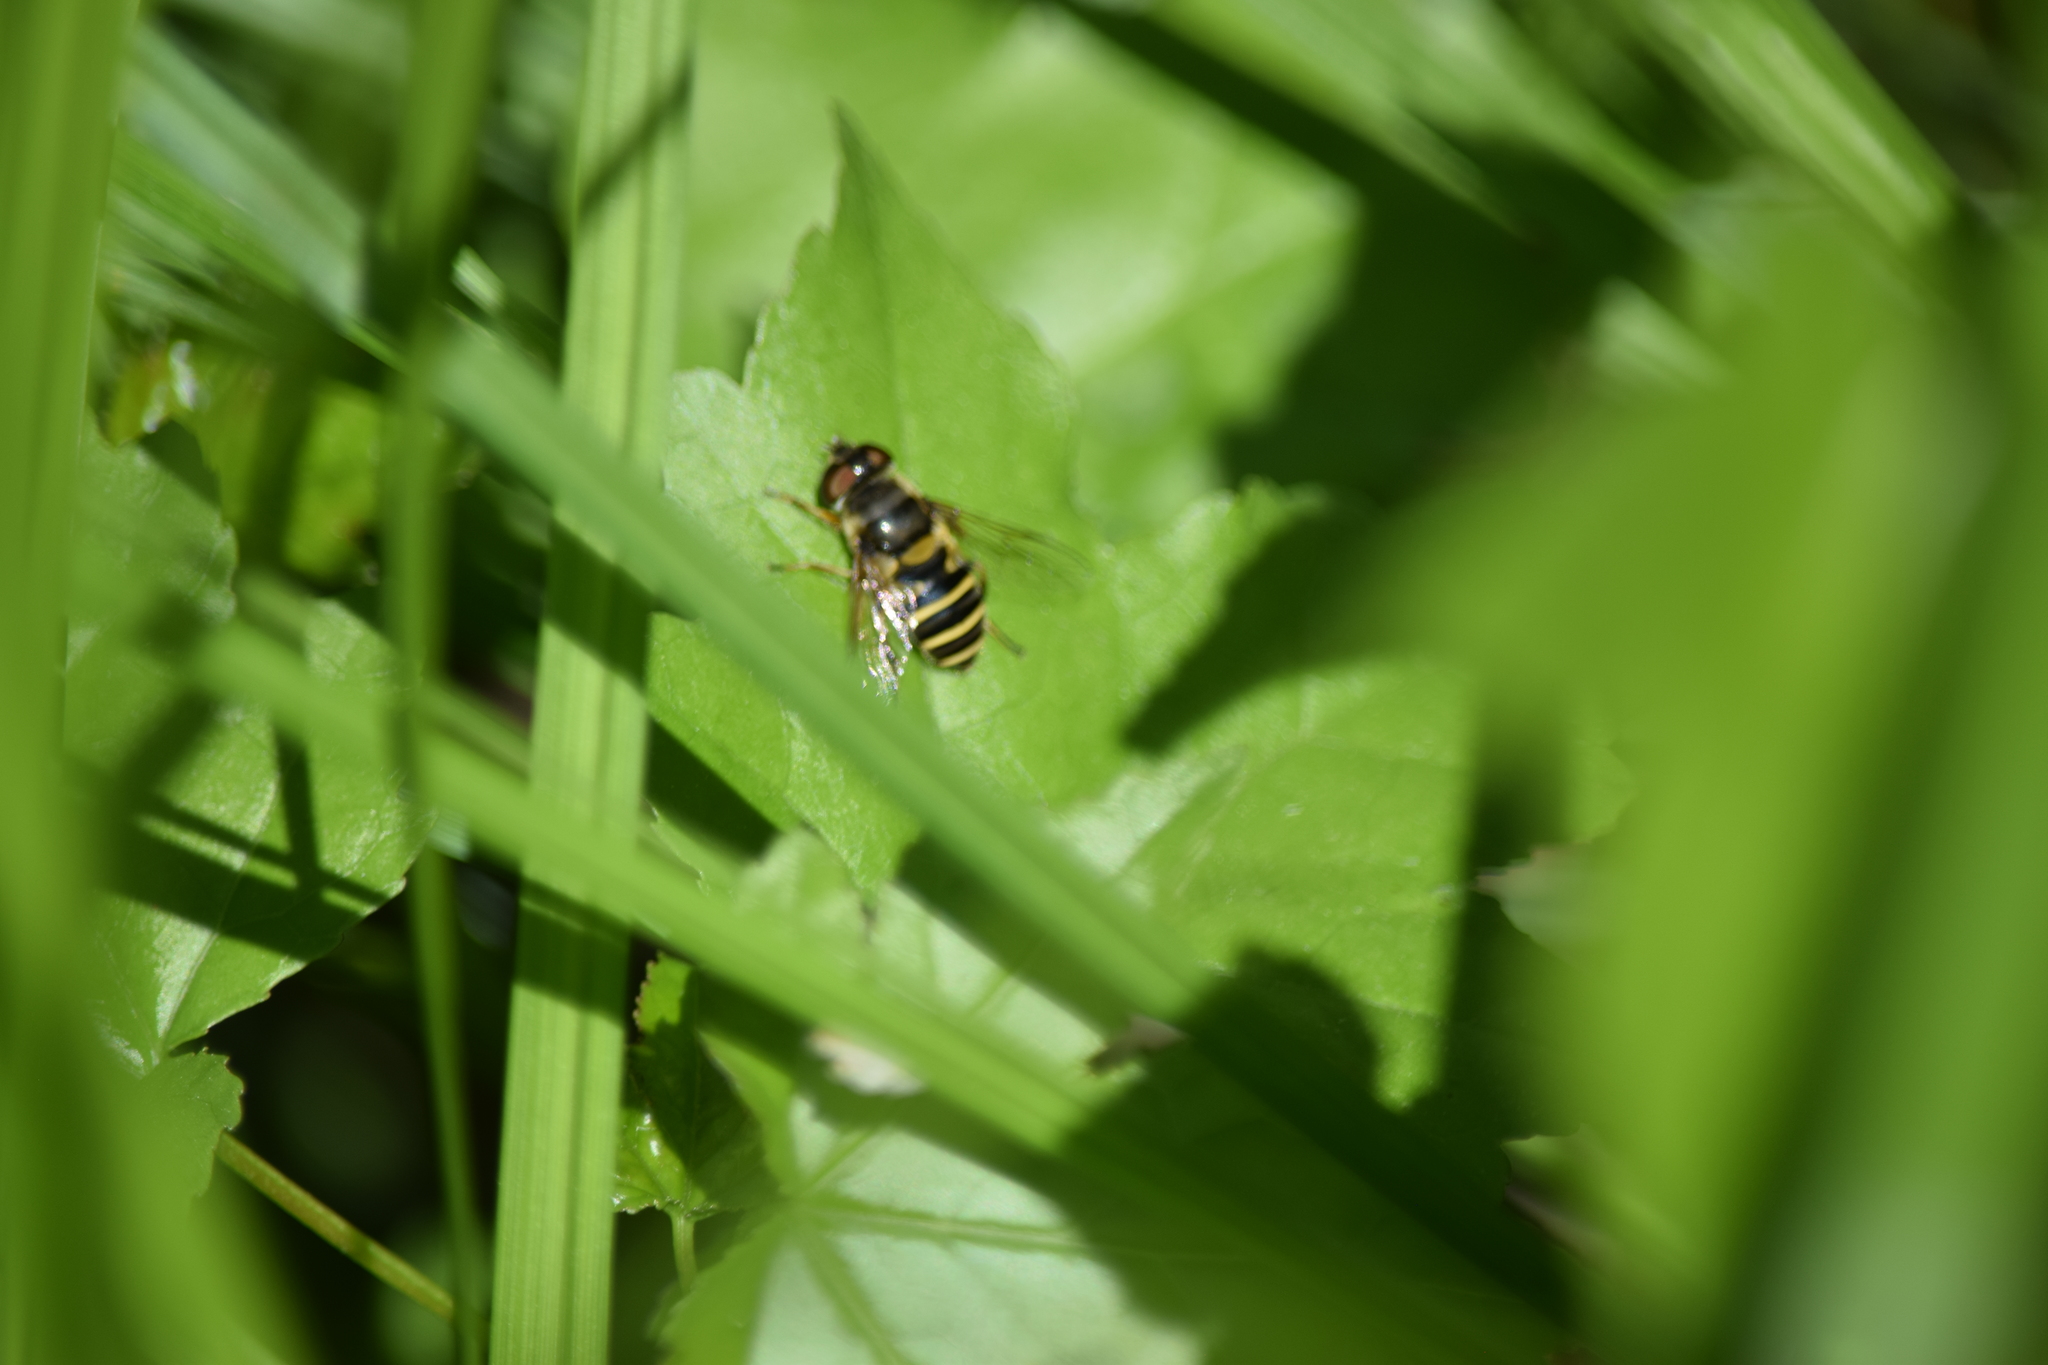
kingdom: Animalia
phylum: Arthropoda
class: Insecta
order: Diptera
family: Syrphidae
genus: Eristalis
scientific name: Eristalis transversa
